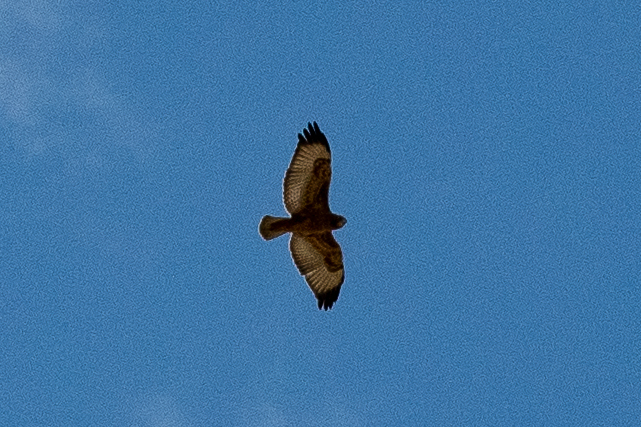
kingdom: Animalia
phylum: Chordata
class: Aves
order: Accipitriformes
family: Accipitridae
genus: Buteo
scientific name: Buteo rufofuscus
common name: Jackal buzzard
